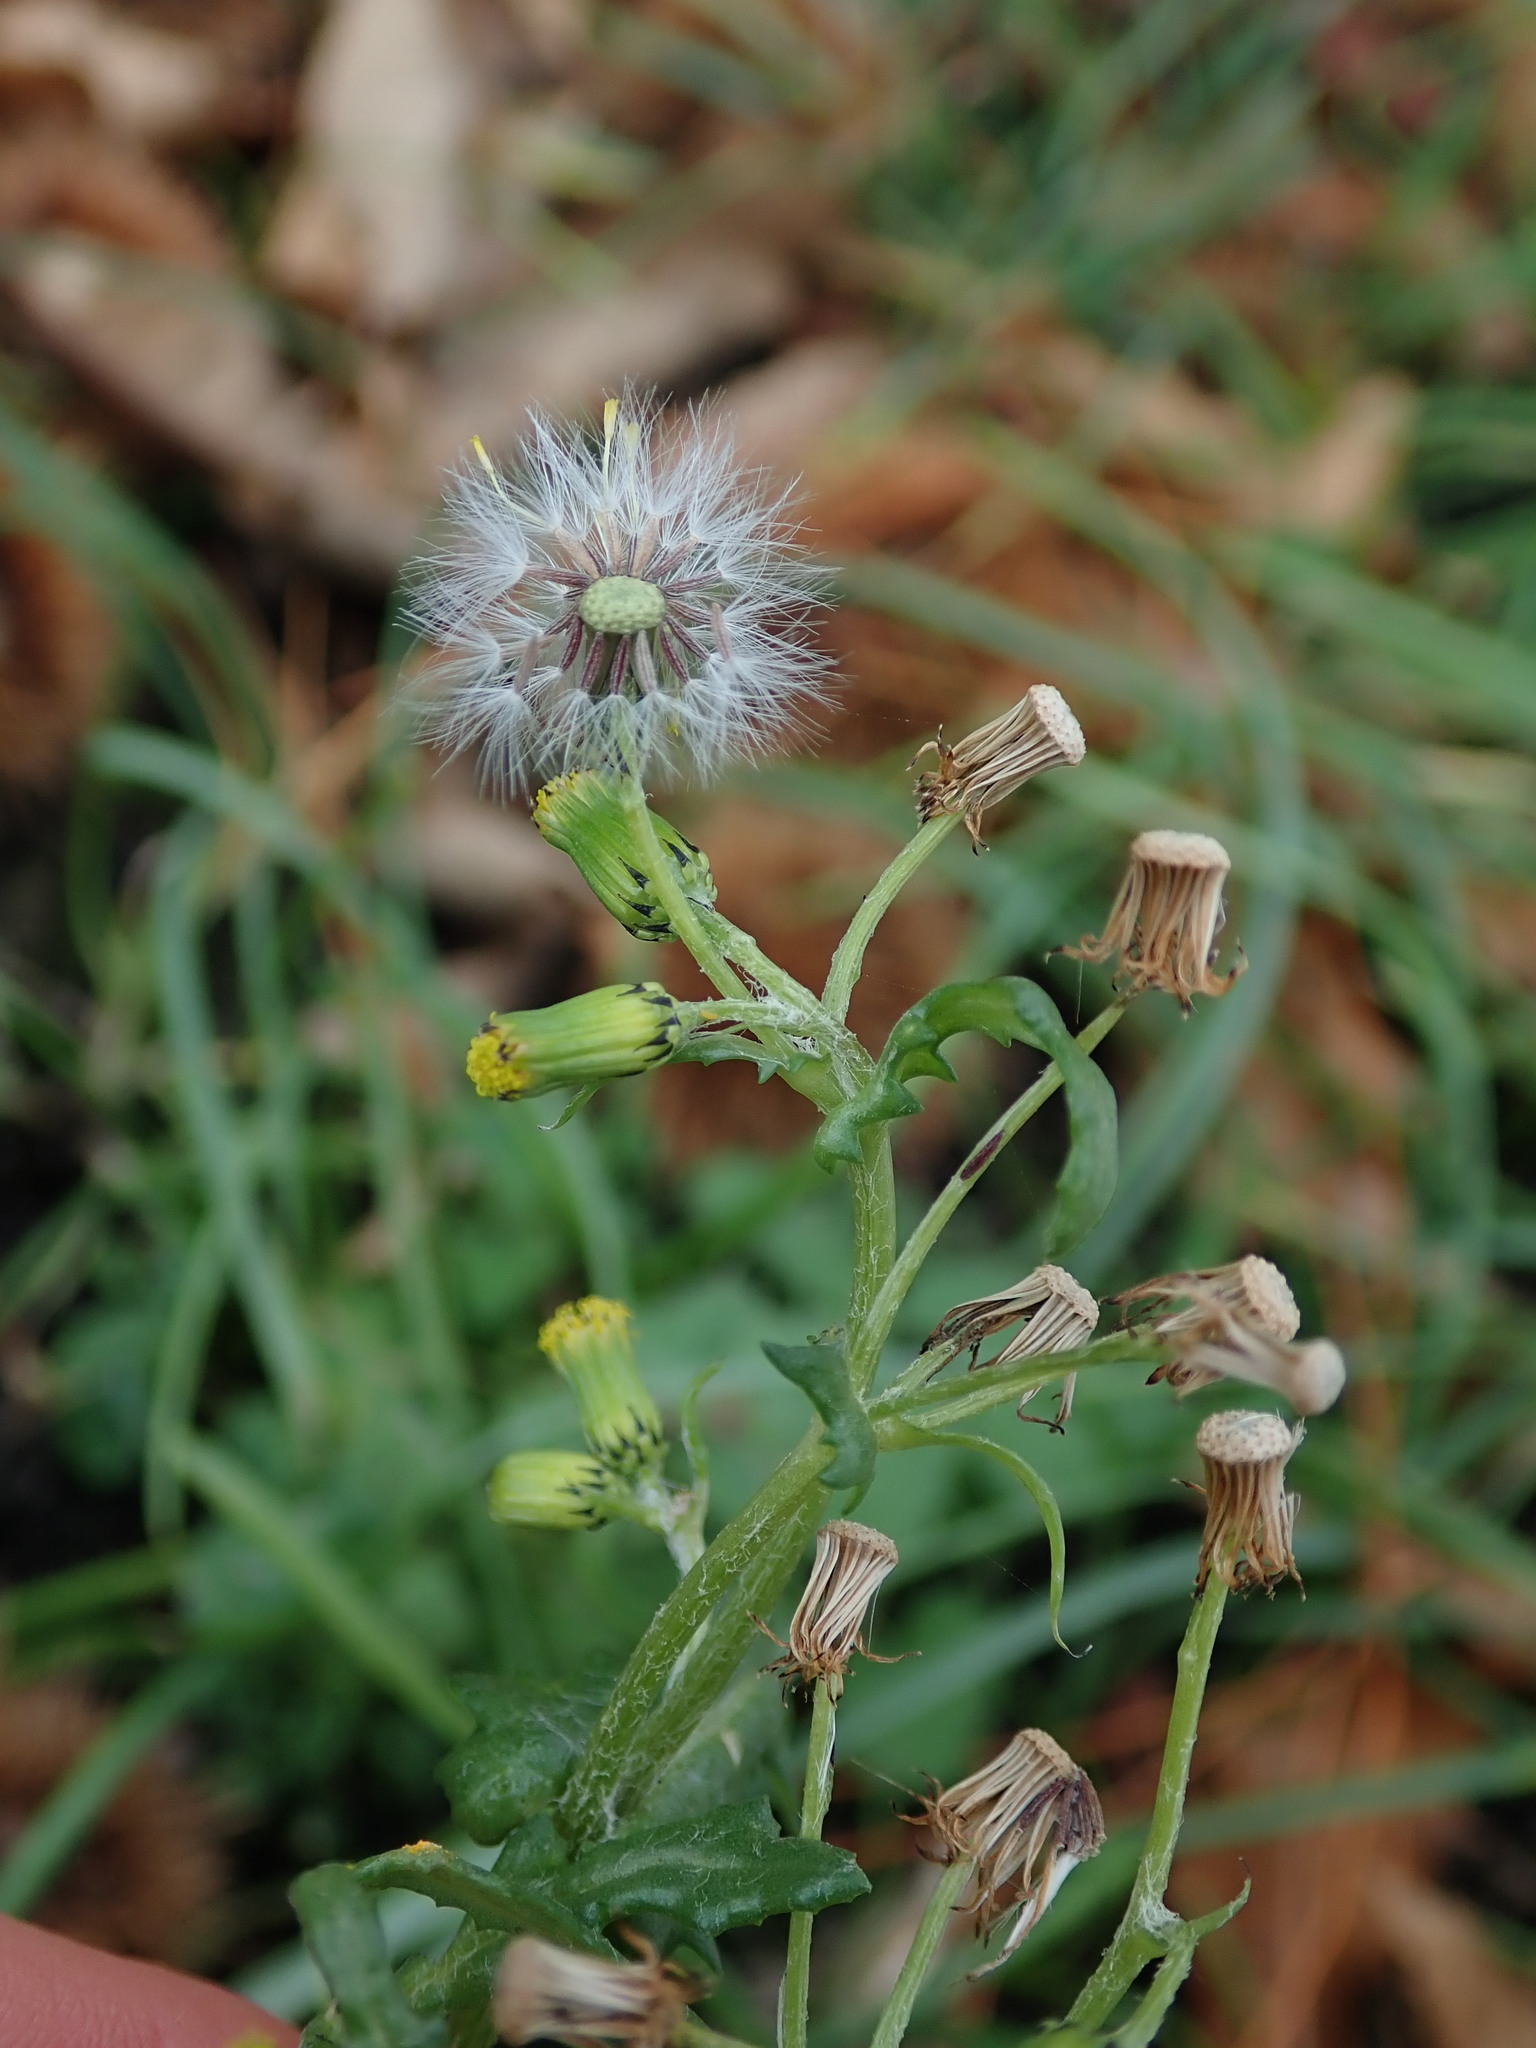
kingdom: Plantae
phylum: Tracheophyta
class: Magnoliopsida
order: Asterales
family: Asteraceae
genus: Senecio
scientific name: Senecio vulgaris
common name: Old-man-in-the-spring
